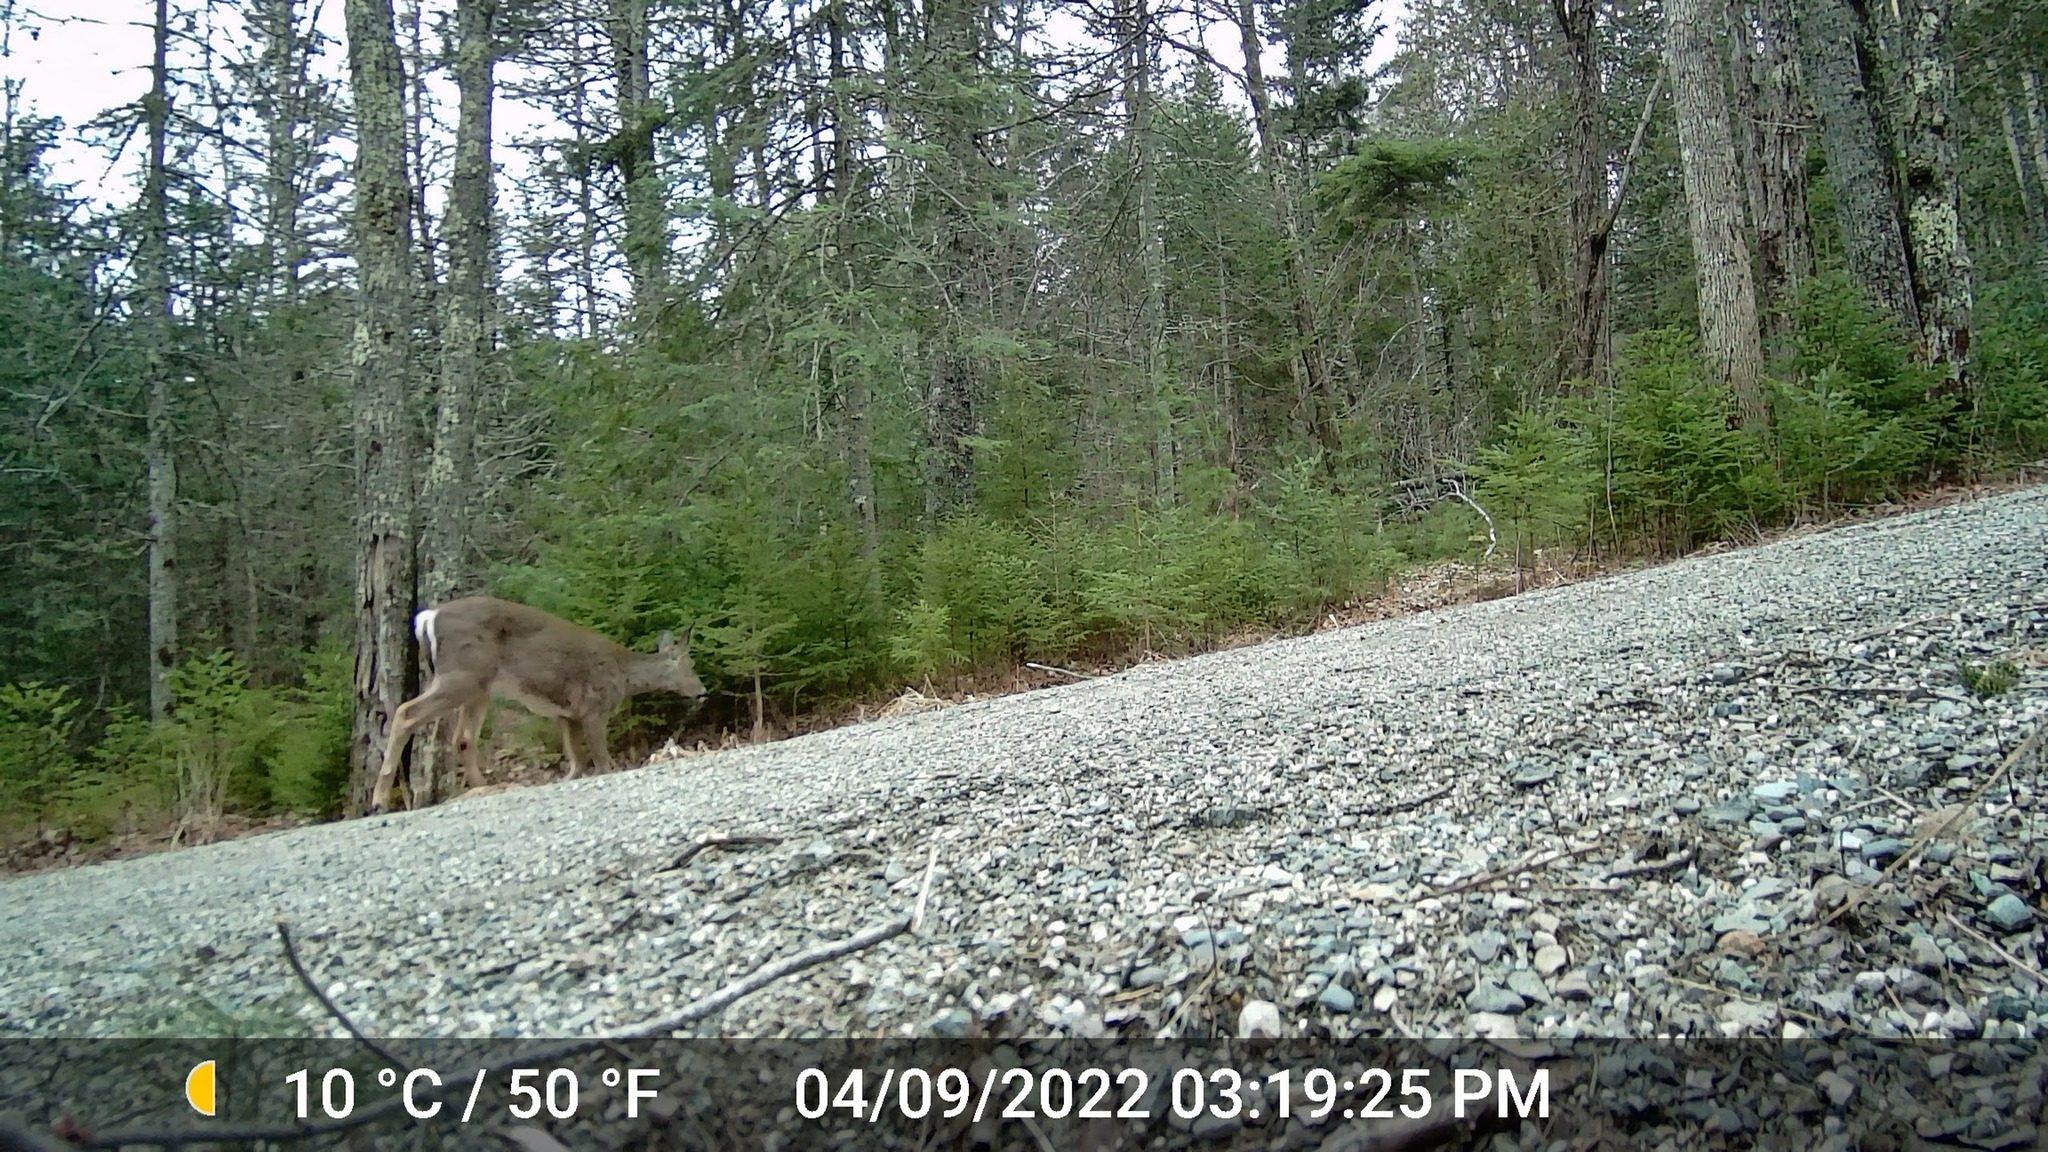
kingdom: Animalia
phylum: Chordata
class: Mammalia
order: Artiodactyla
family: Cervidae
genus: Odocoileus
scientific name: Odocoileus virginianus
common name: White-tailed deer
